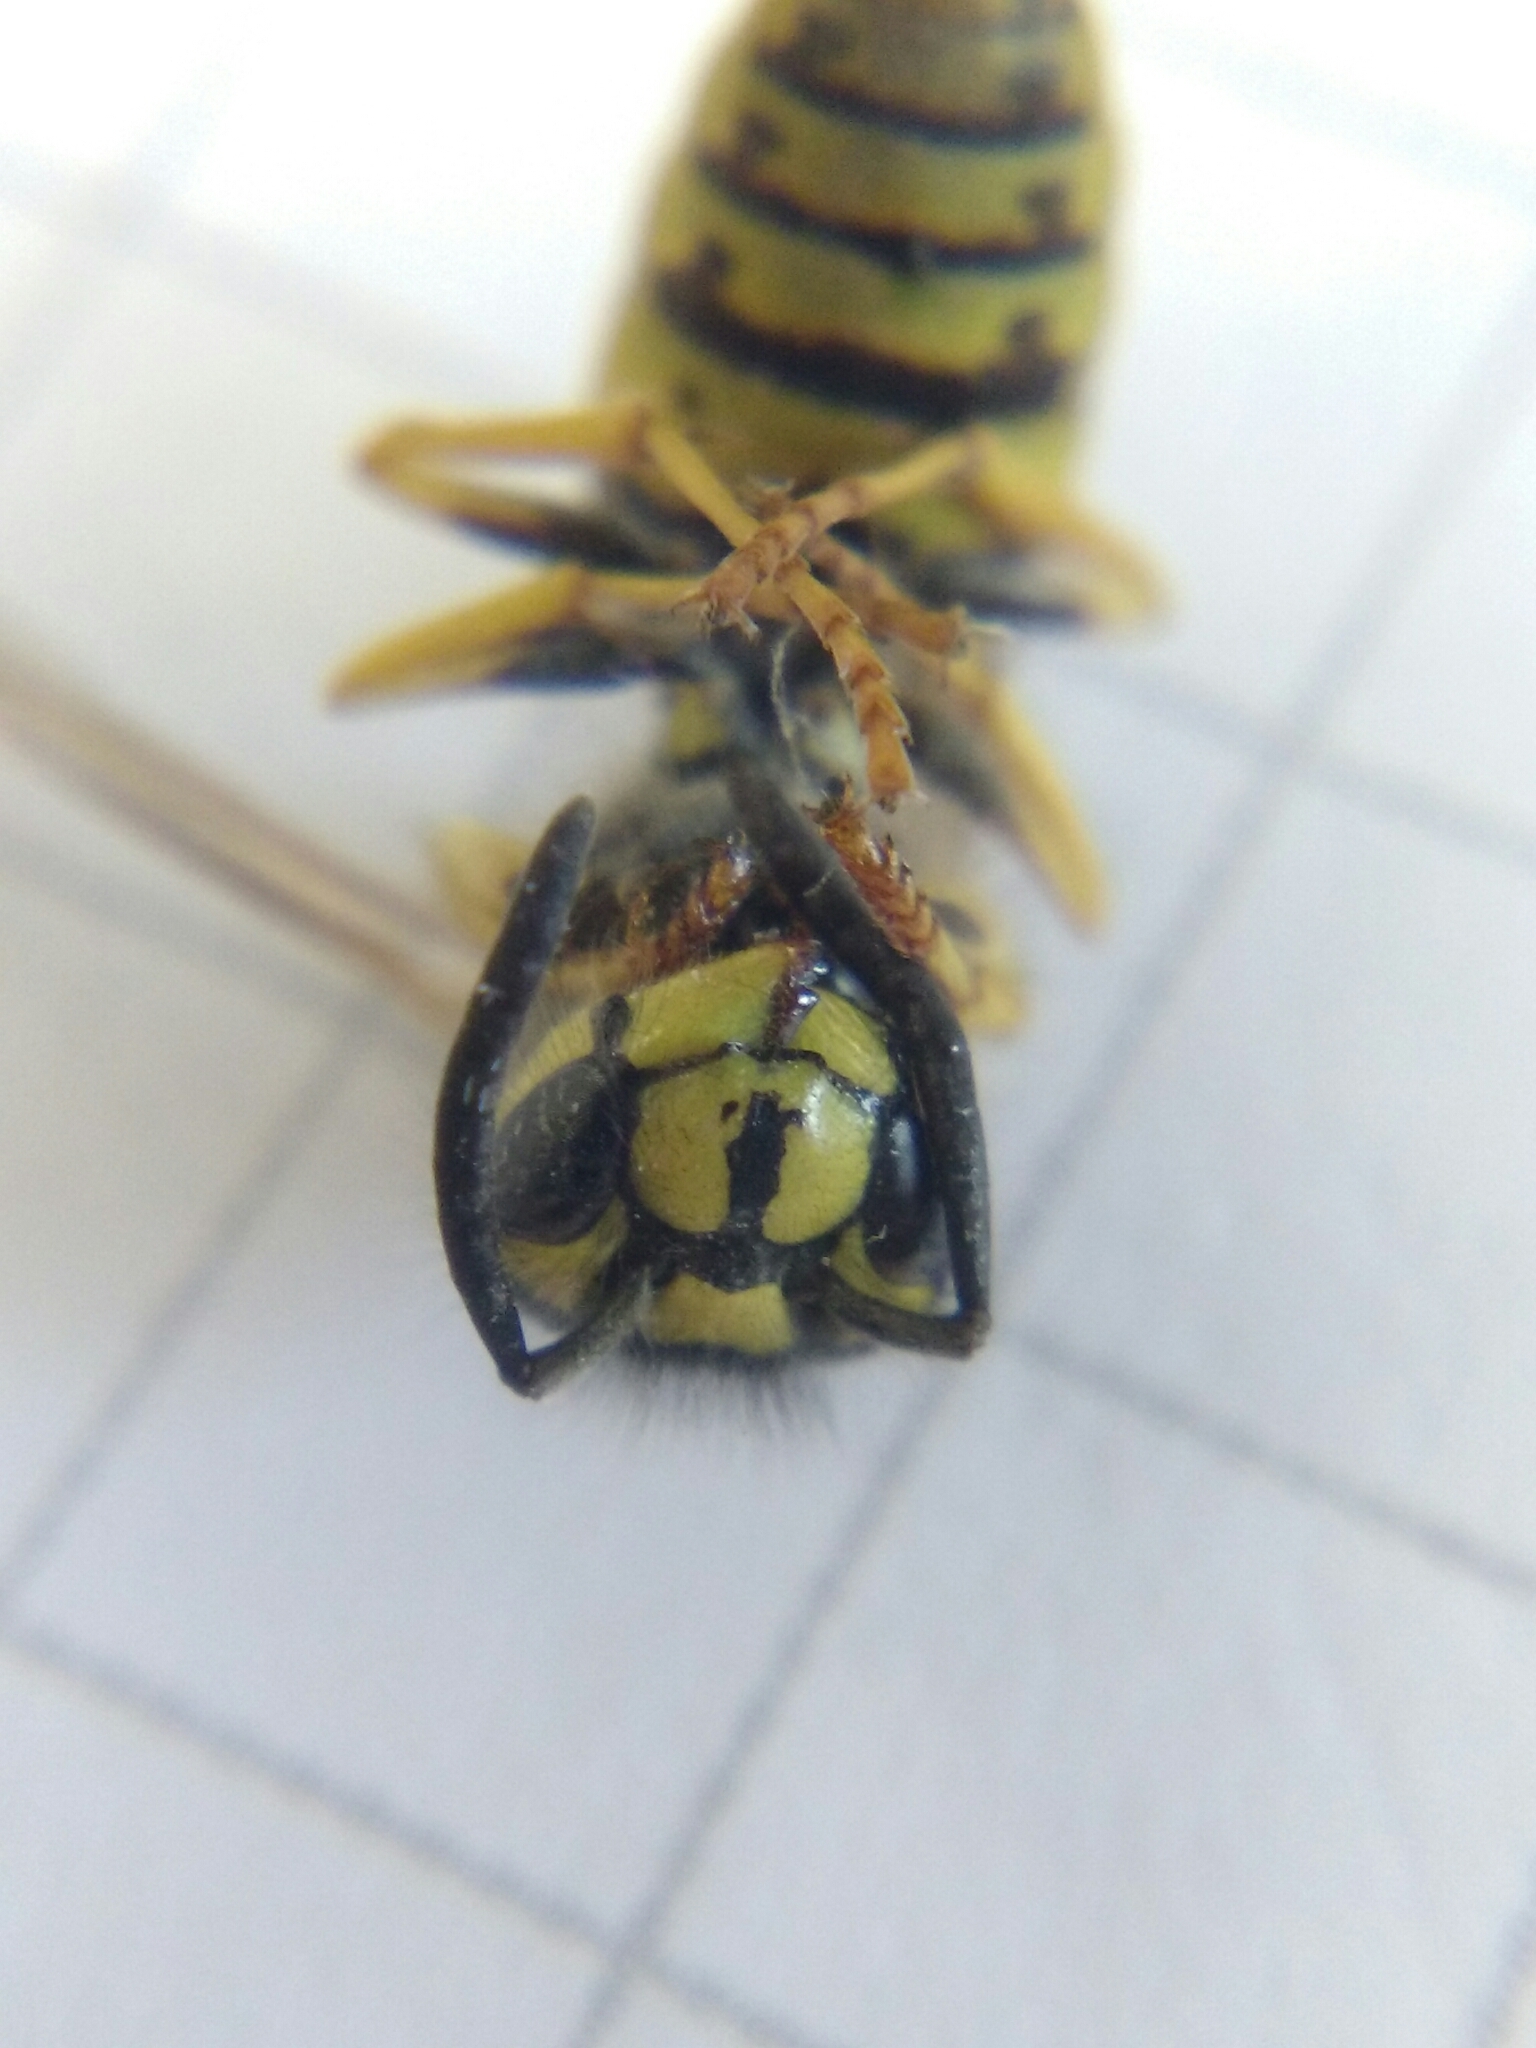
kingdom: Animalia
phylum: Arthropoda
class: Insecta
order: Hymenoptera
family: Vespidae
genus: Vespula
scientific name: Vespula vulgaris
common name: Common wasp
